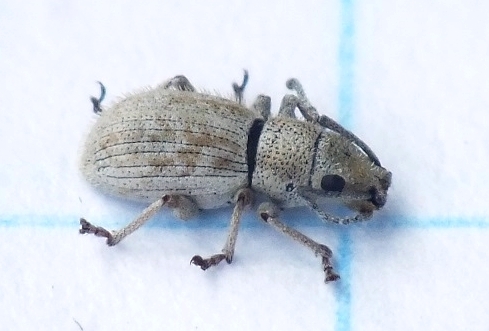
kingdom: Animalia
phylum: Arthropoda
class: Insecta
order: Coleoptera
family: Curculionidae
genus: Ptochus
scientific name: Ptochus porcellus
